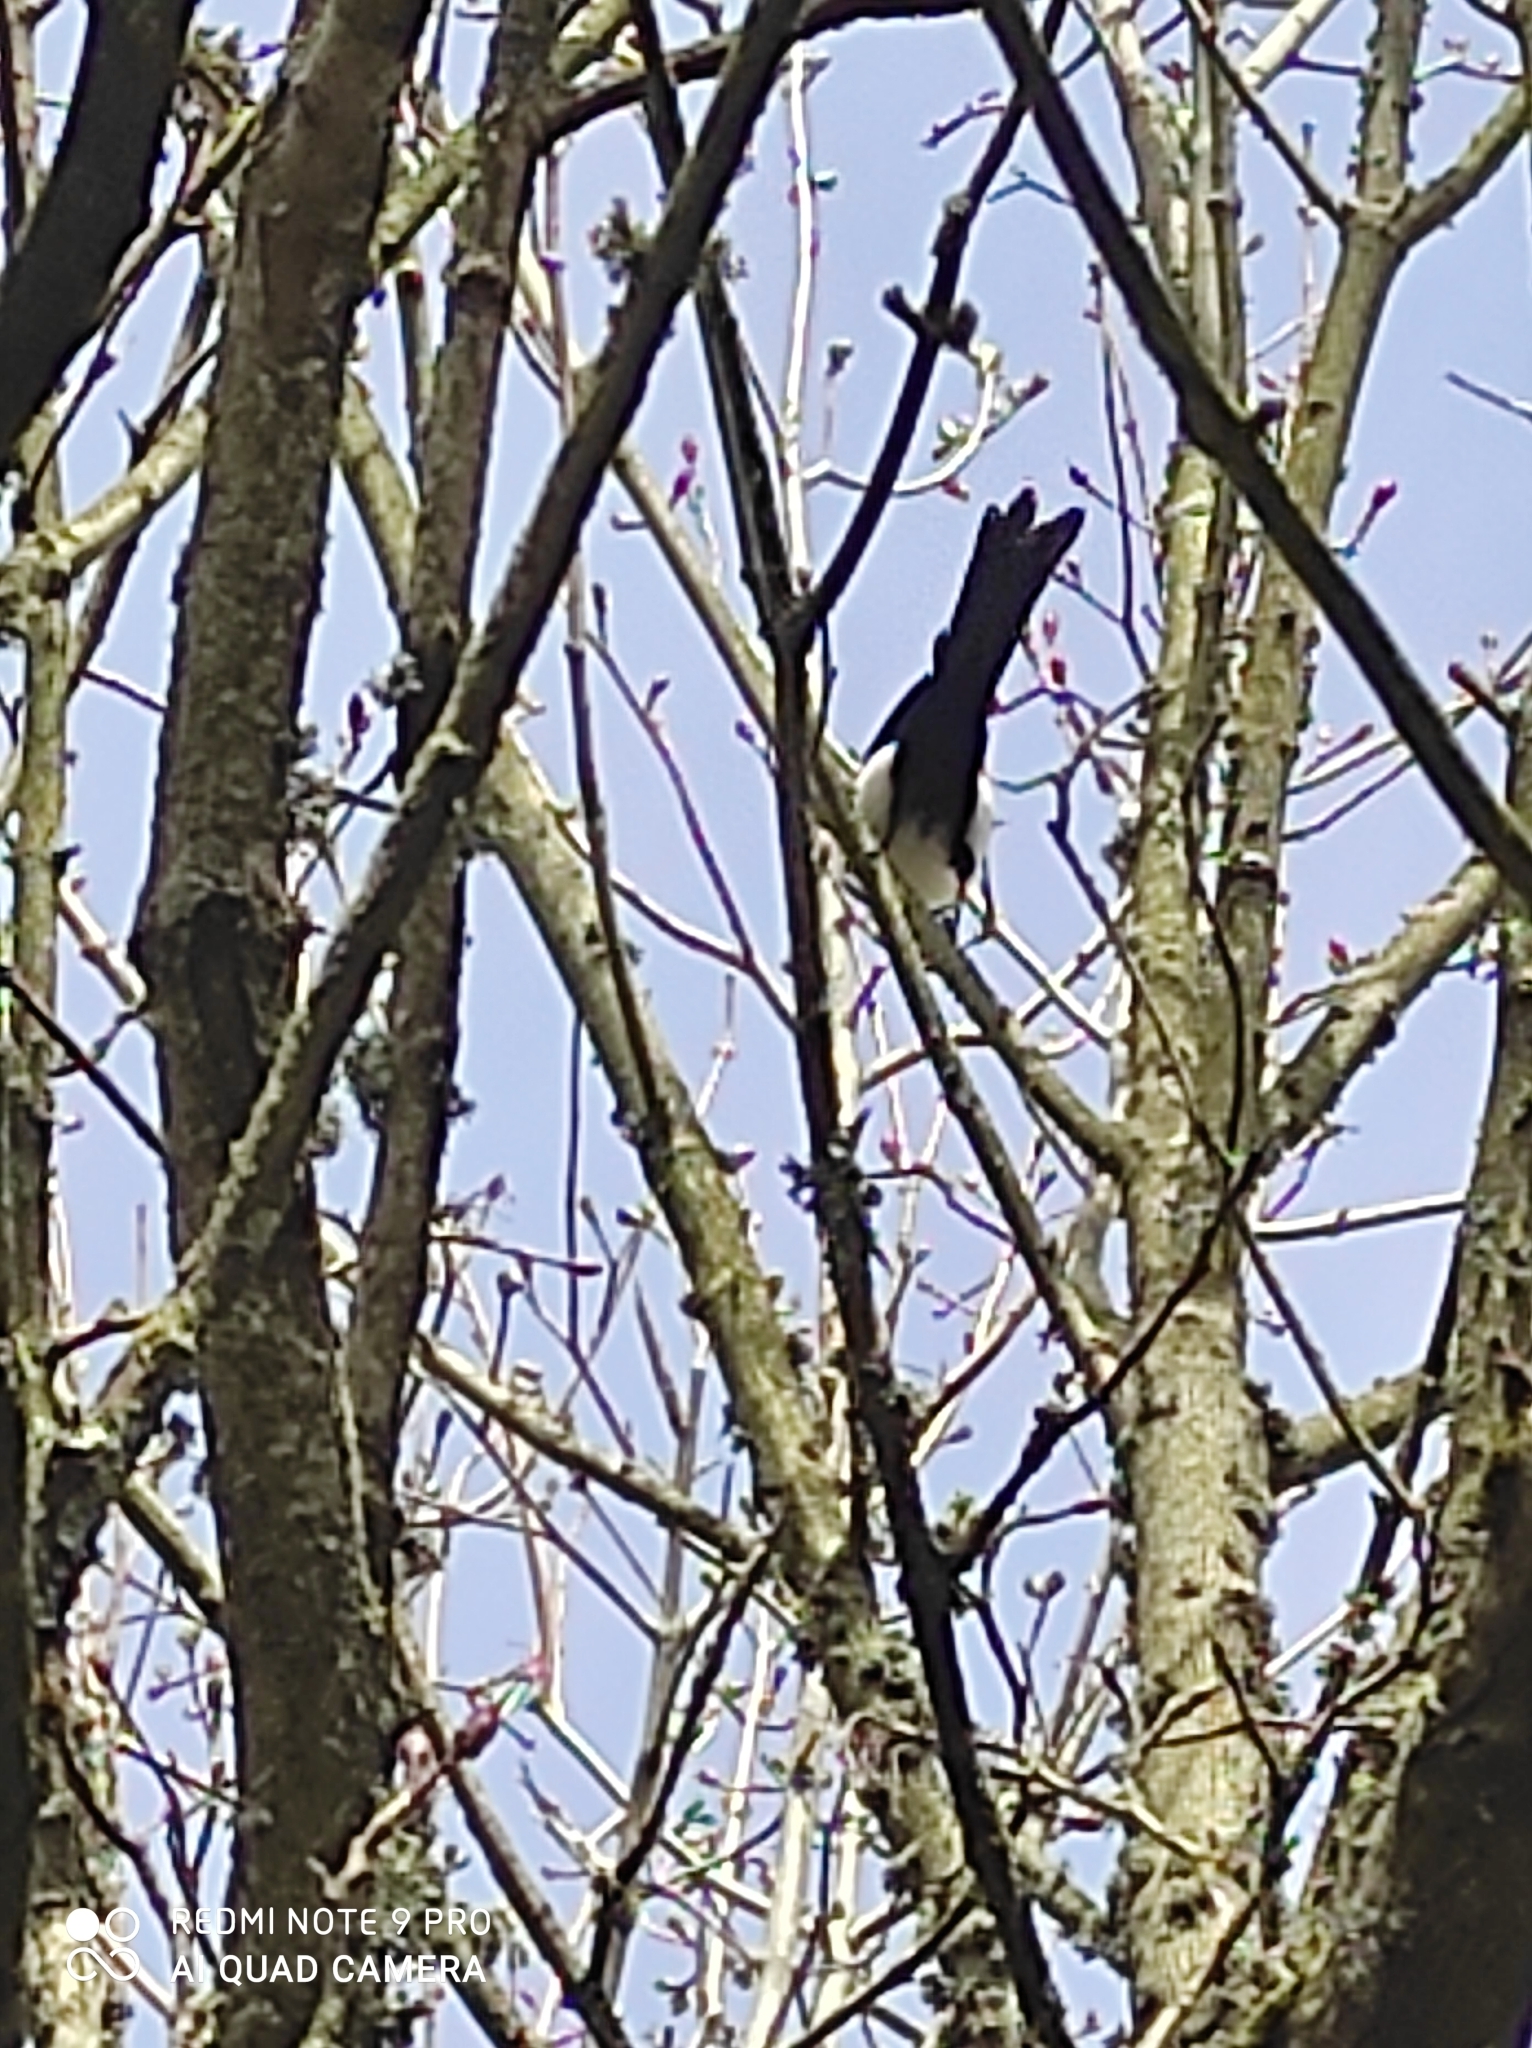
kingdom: Animalia
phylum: Chordata
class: Aves
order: Passeriformes
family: Corvidae
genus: Pica
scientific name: Pica pica
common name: Eurasian magpie
